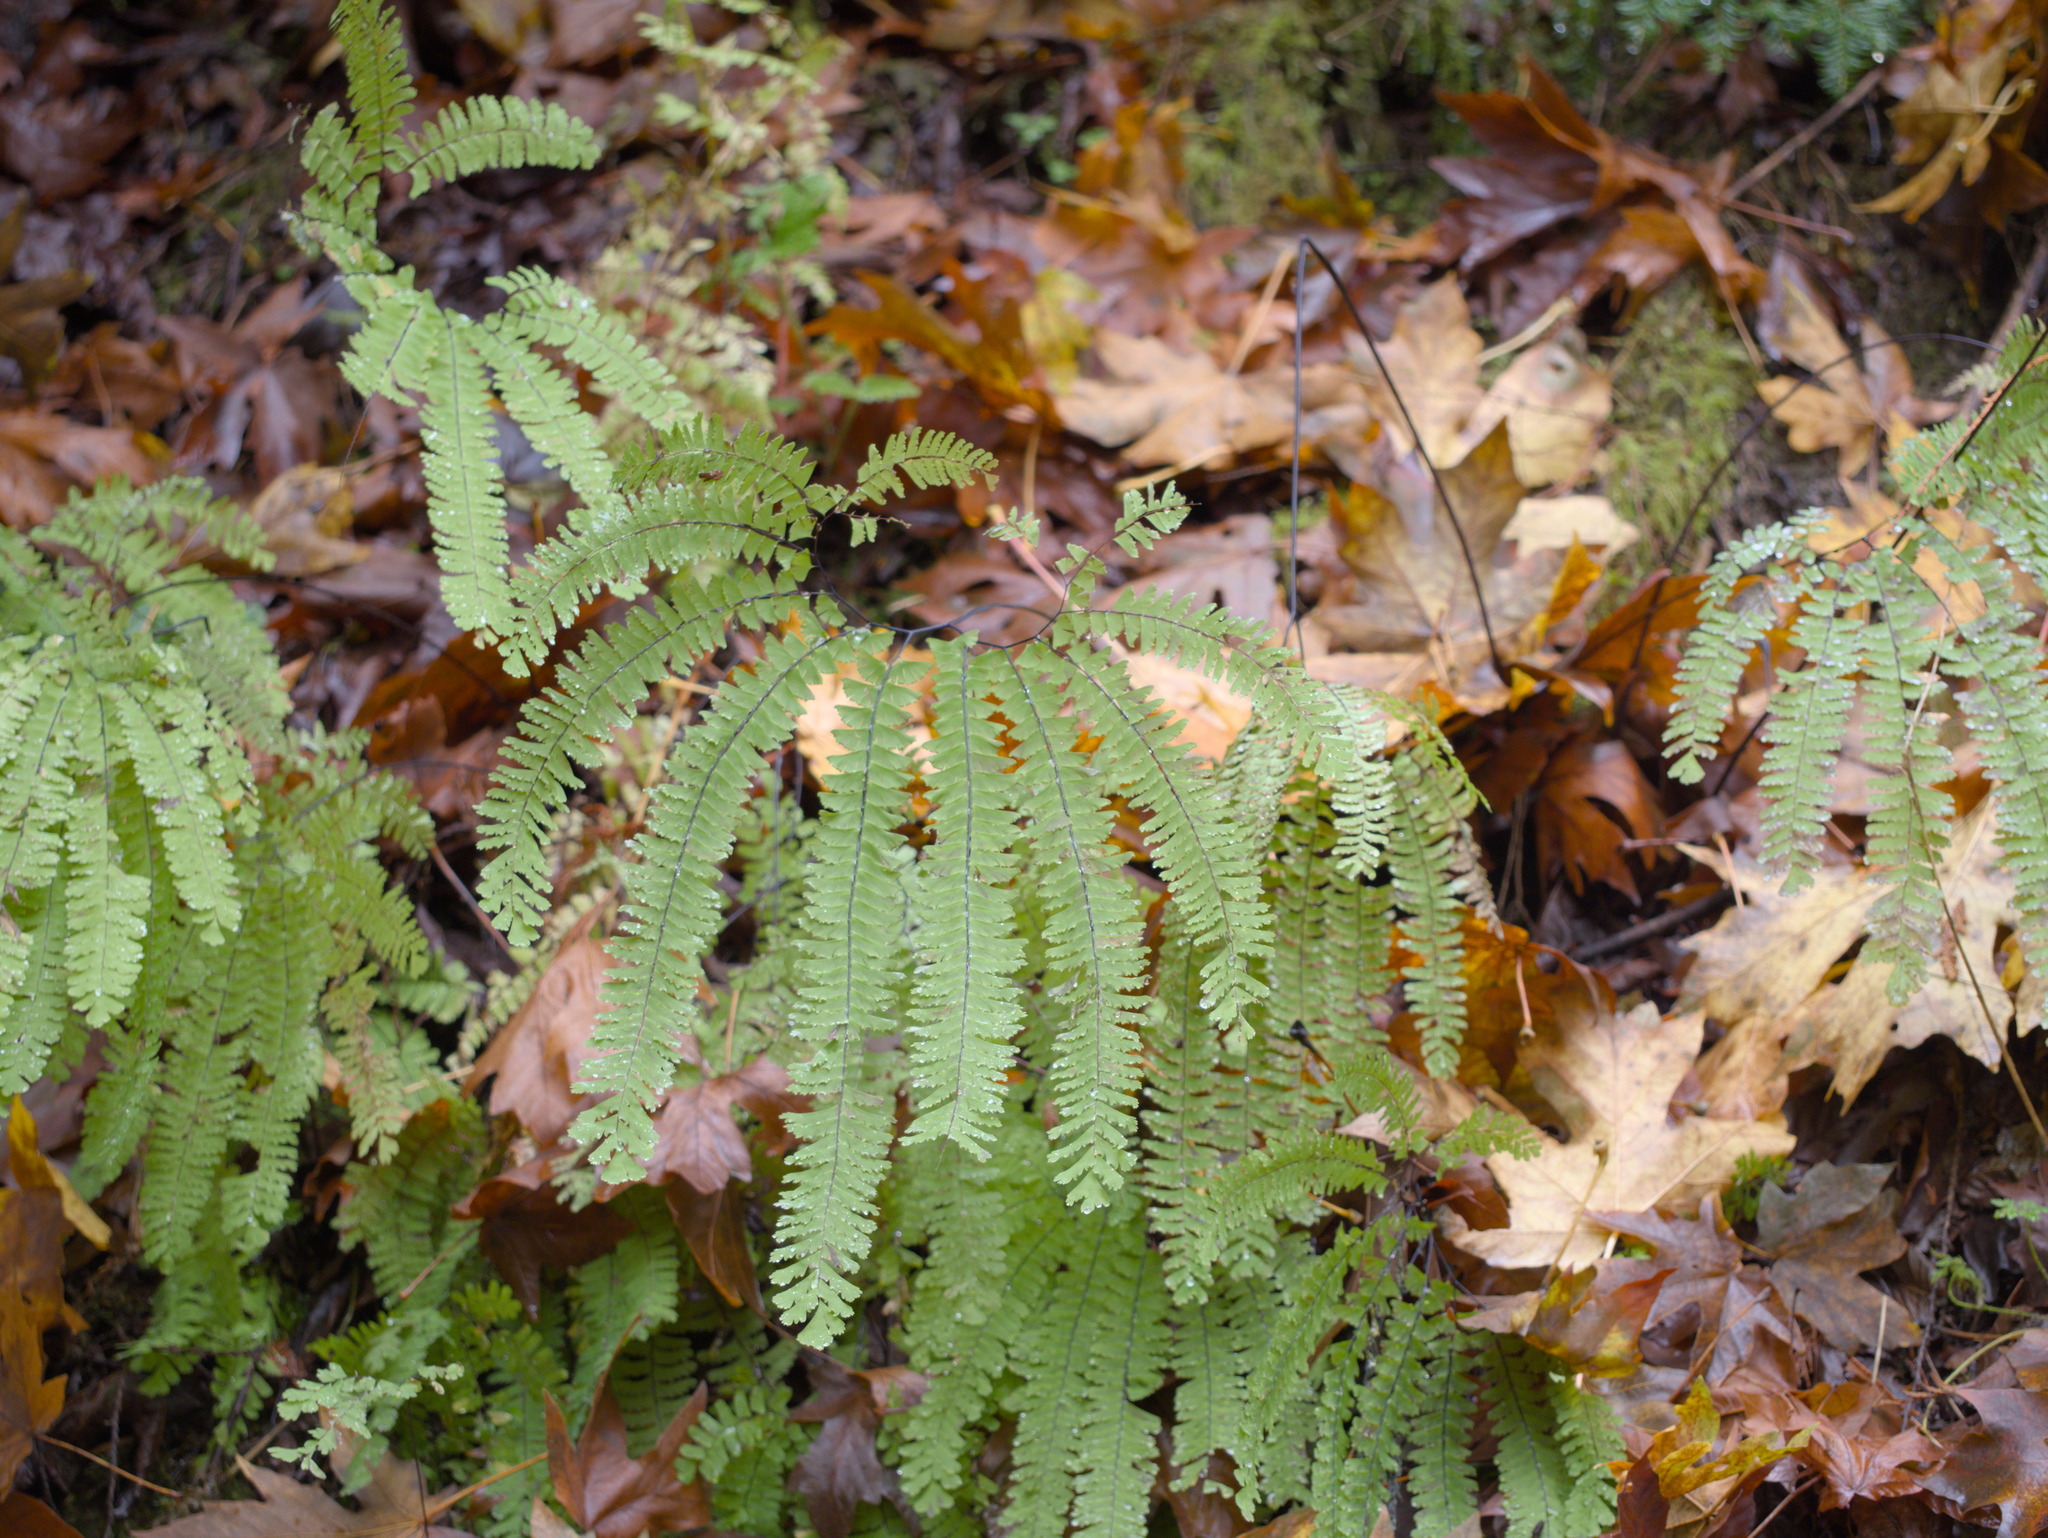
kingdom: Plantae
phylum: Tracheophyta
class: Polypodiopsida
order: Polypodiales
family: Pteridaceae
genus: Adiantum
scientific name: Adiantum aleuticum
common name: Aleutian maidenhair fern
